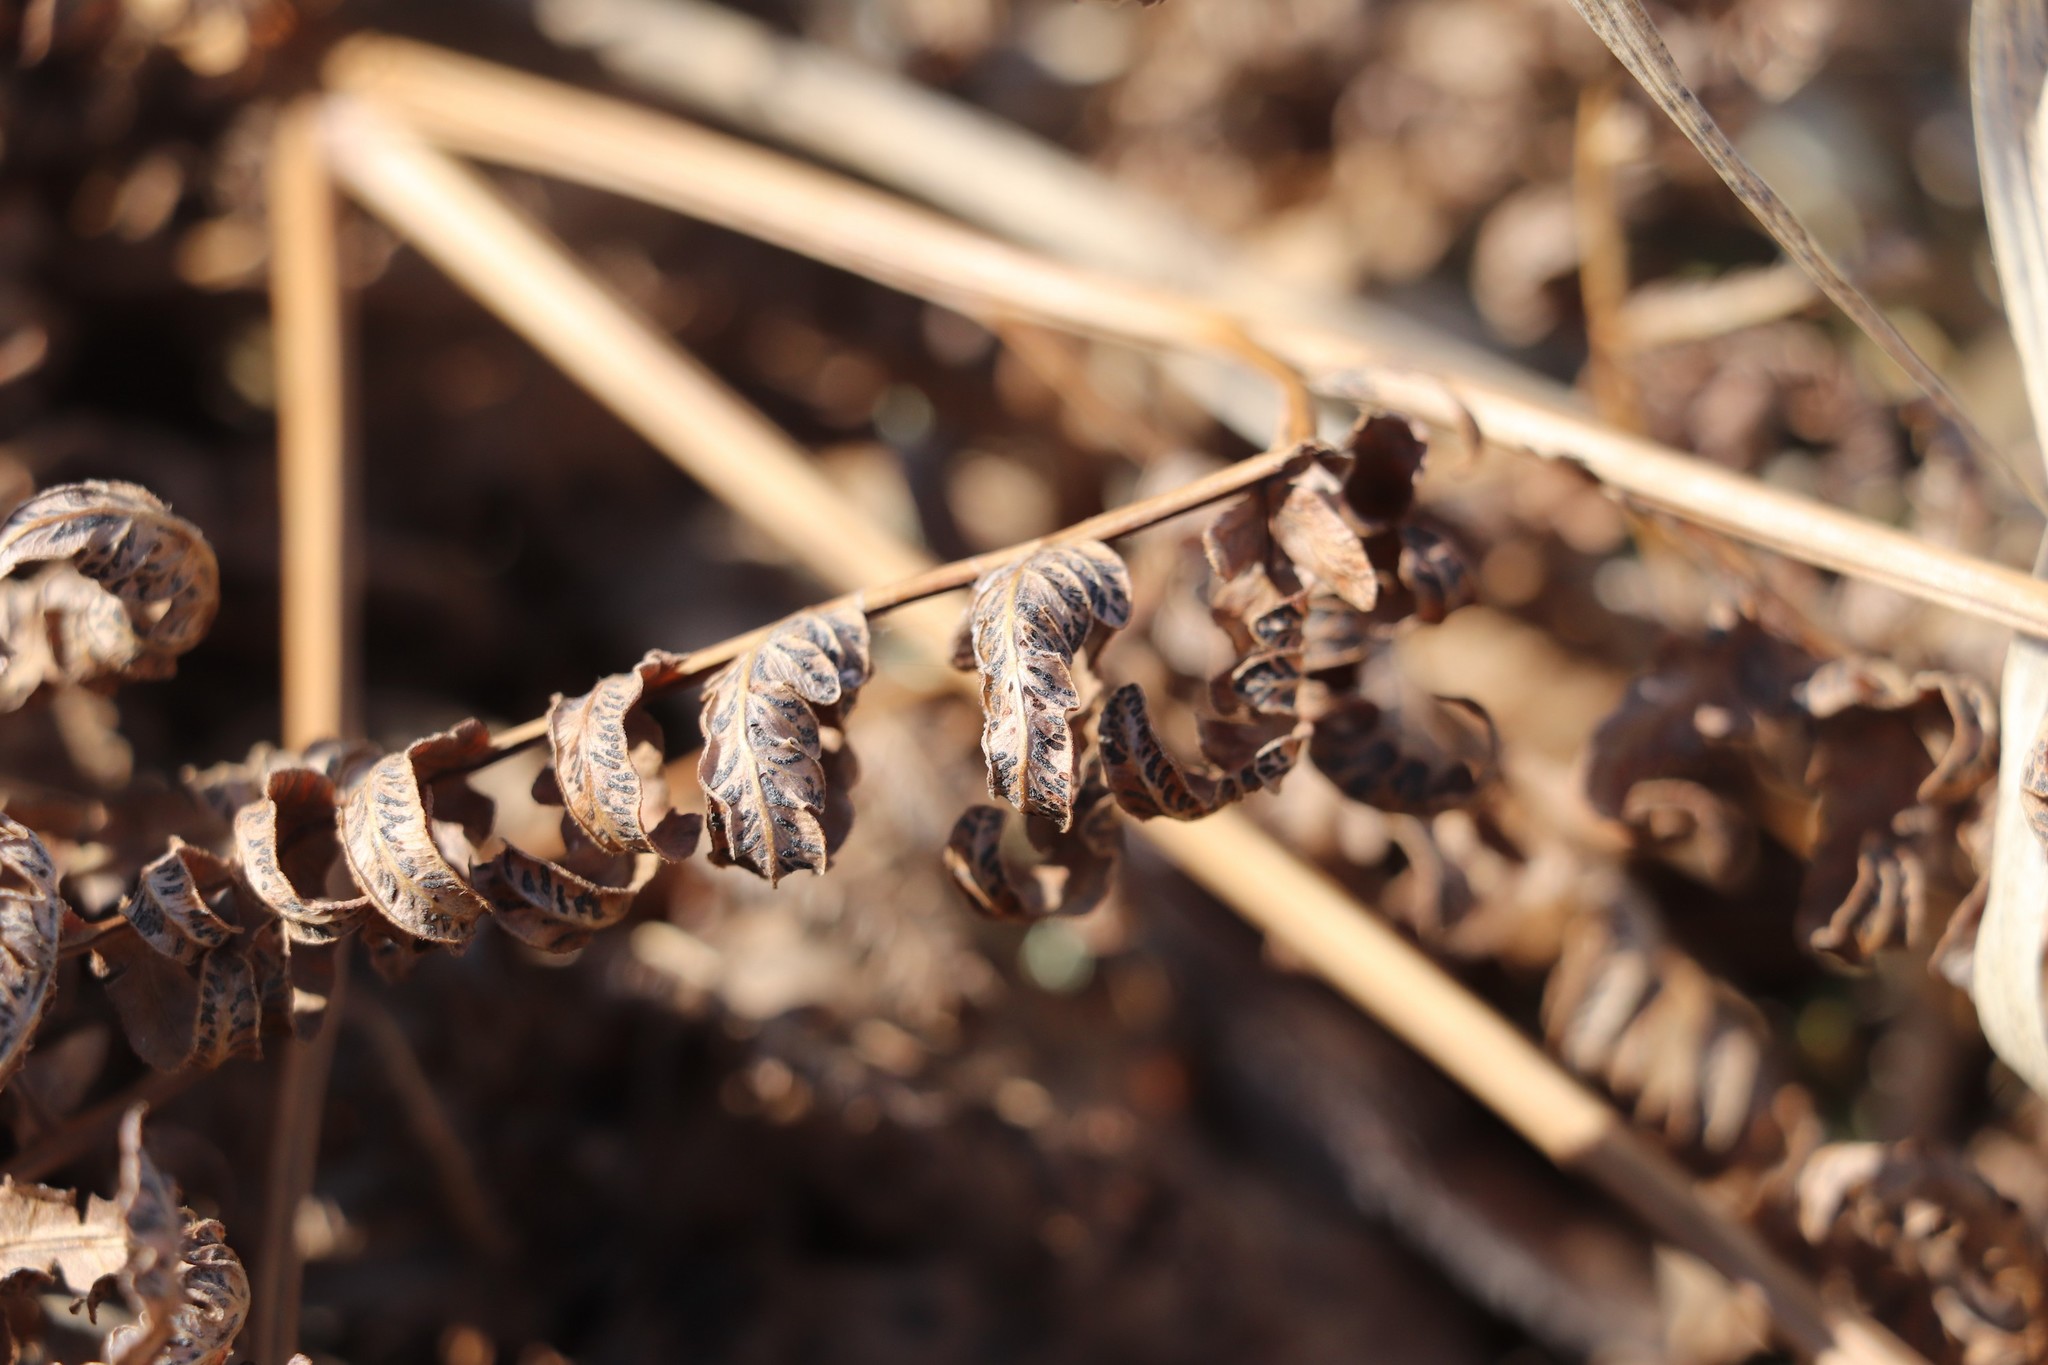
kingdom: Fungi
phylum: Ascomycota
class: Sordariomycetes
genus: Cryptomycina
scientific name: Cryptomycina pteridis
